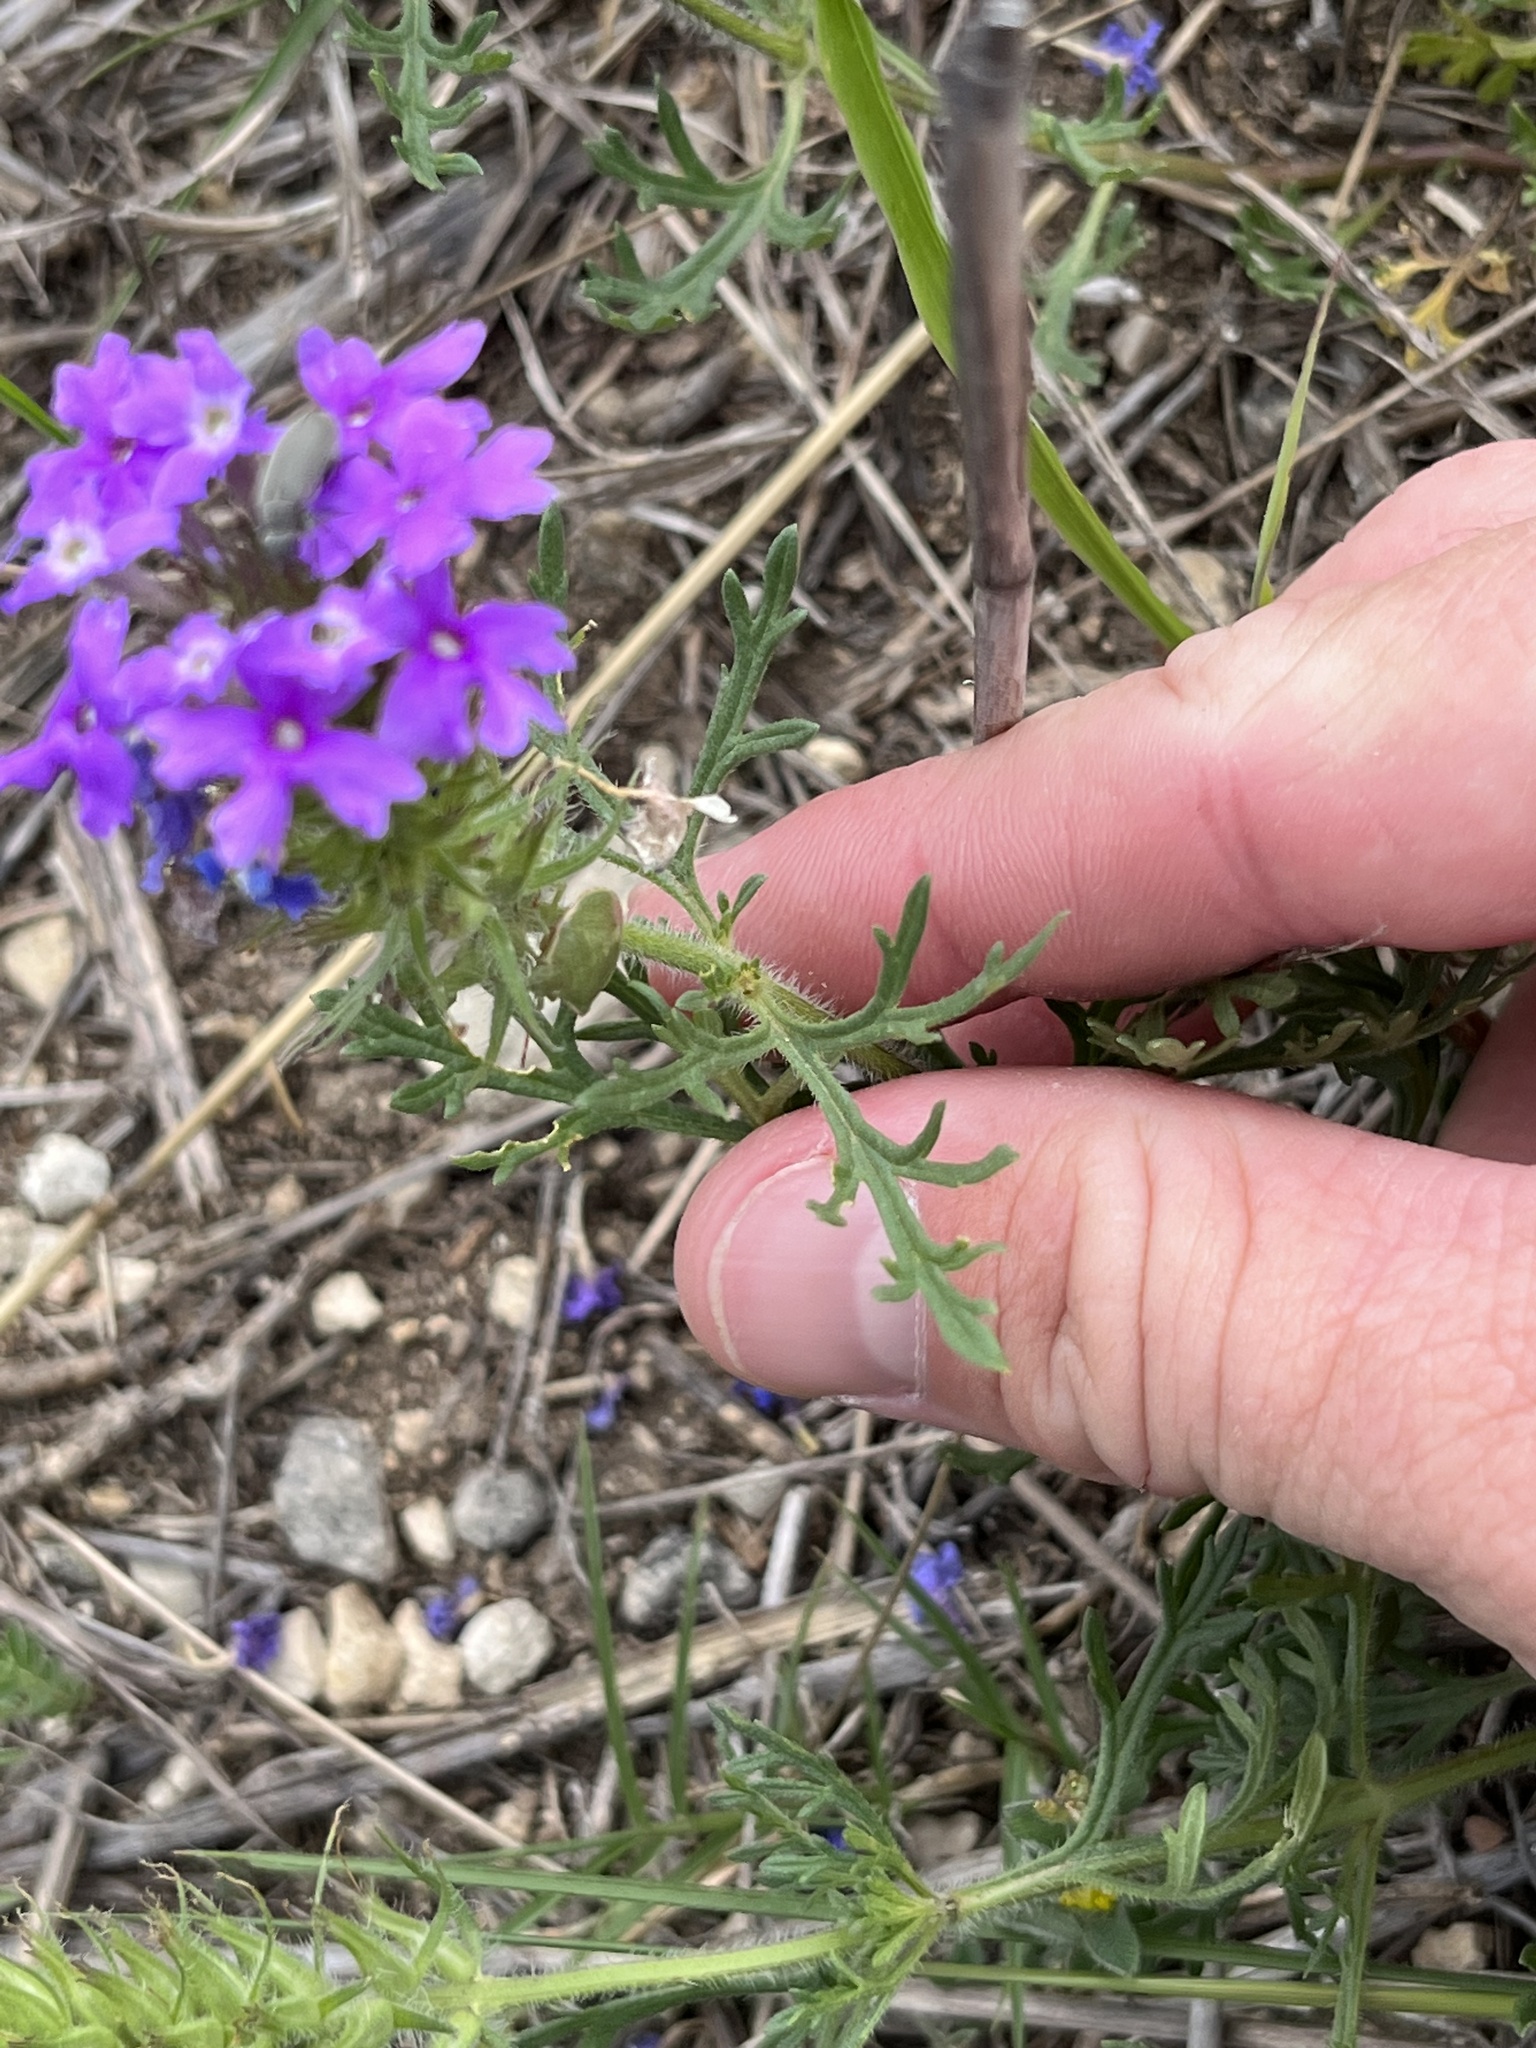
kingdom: Plantae
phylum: Tracheophyta
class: Magnoliopsida
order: Lamiales
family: Verbenaceae
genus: Verbena
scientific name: Verbena bipinnatifida
